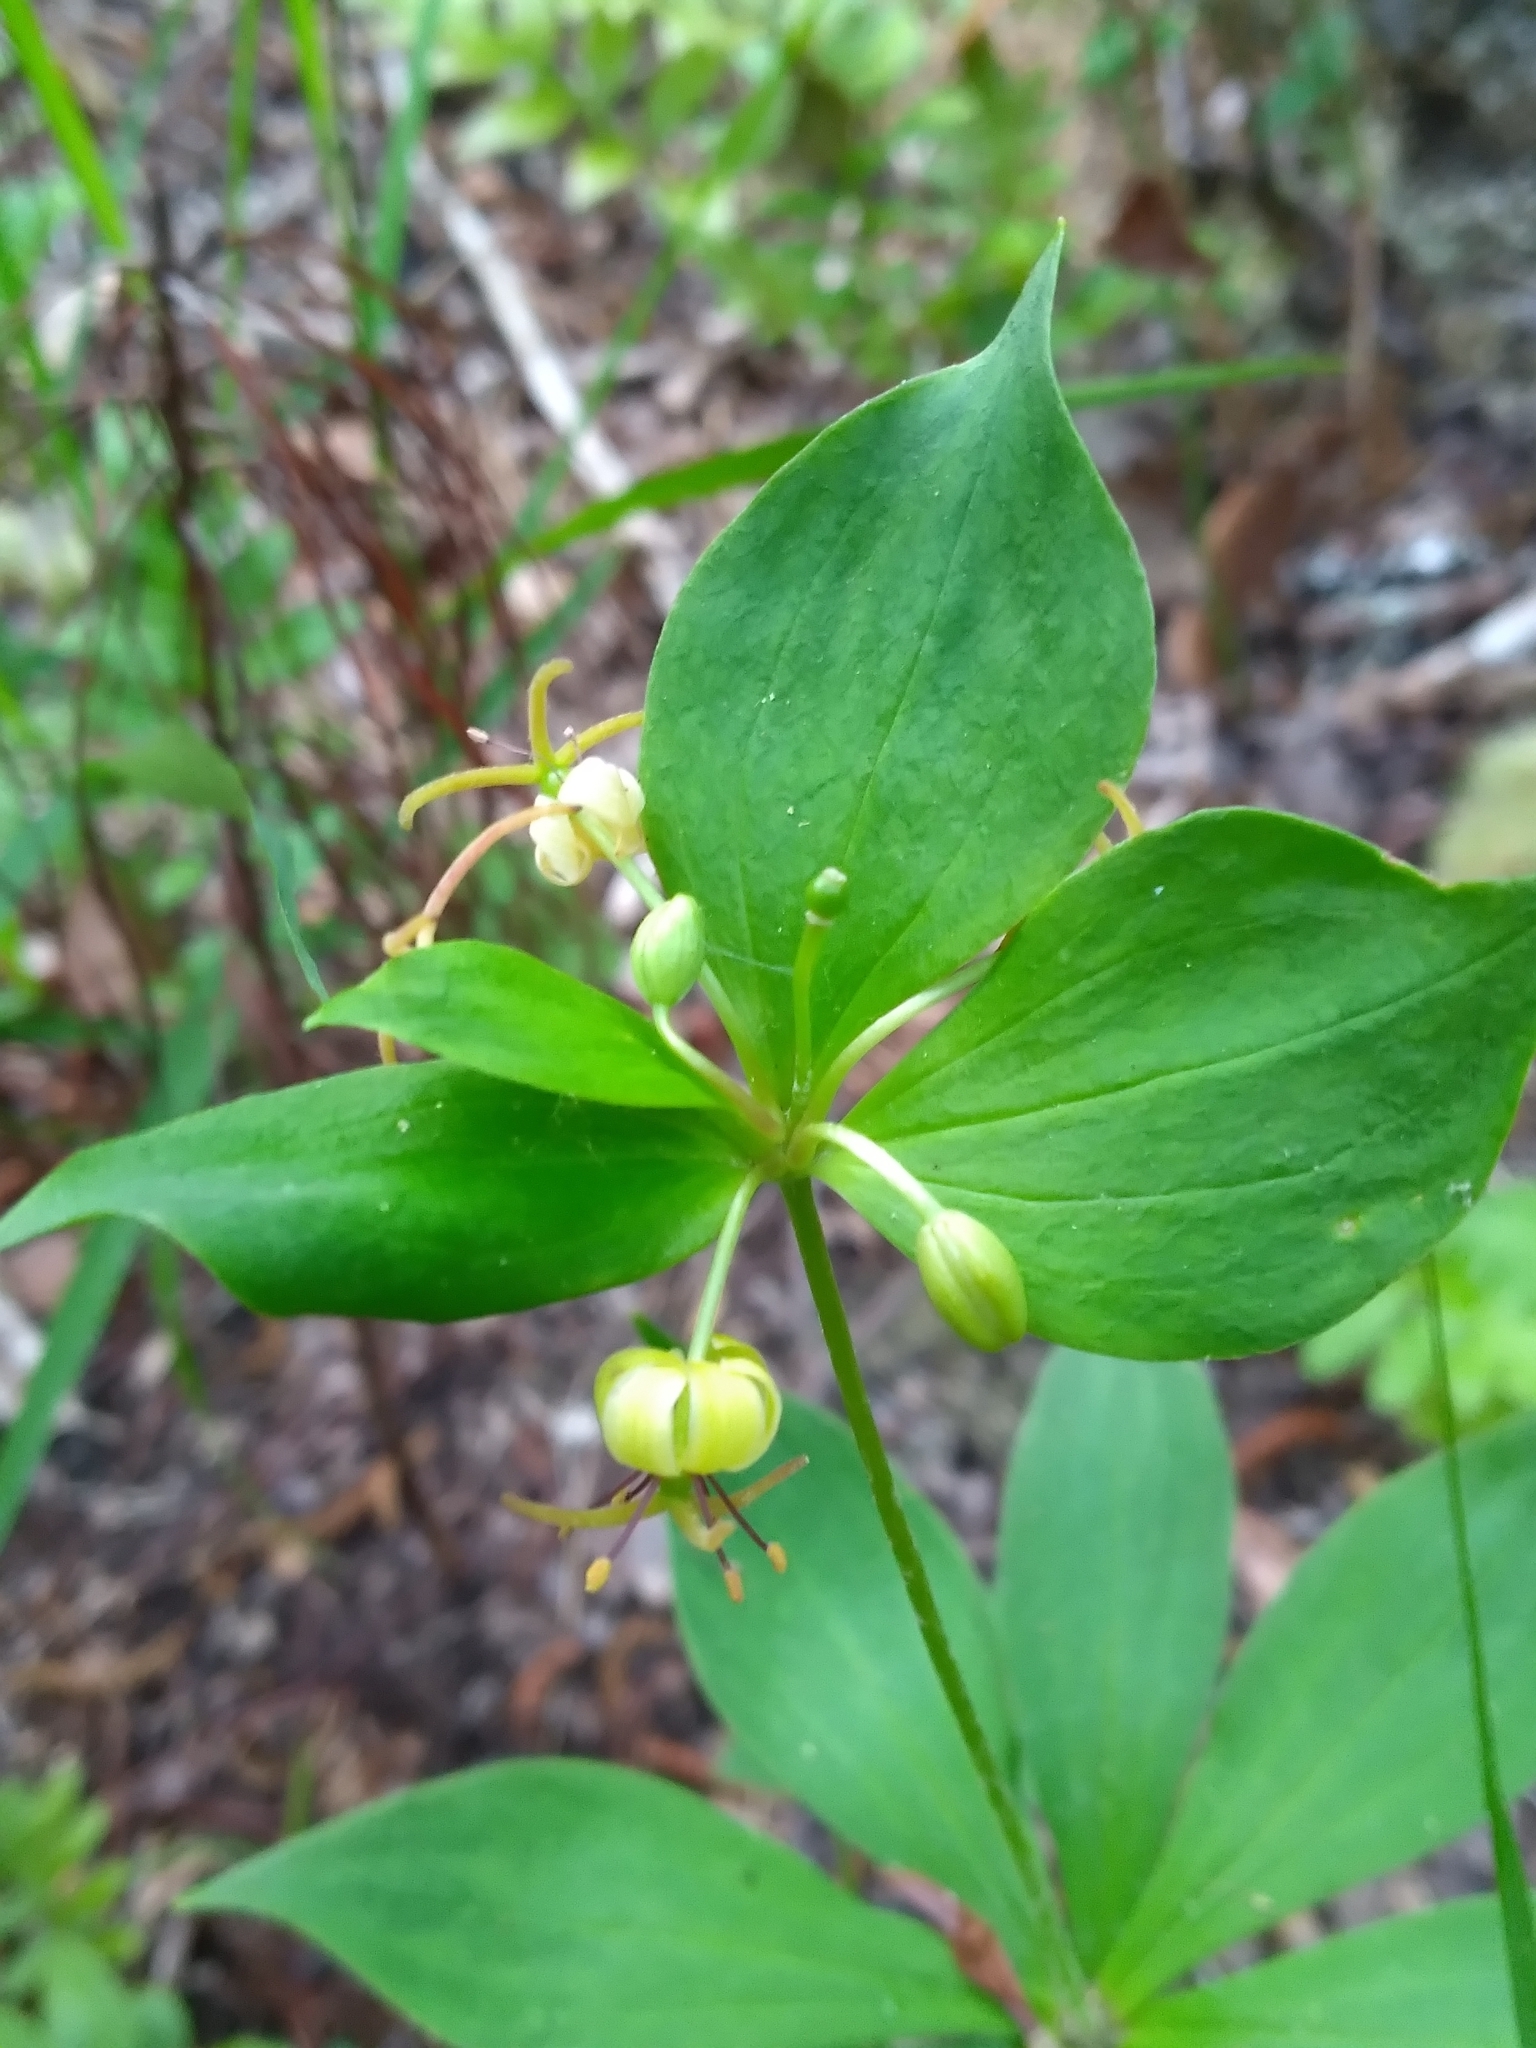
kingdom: Plantae
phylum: Tracheophyta
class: Liliopsida
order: Liliales
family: Liliaceae
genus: Medeola
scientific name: Medeola virginiana
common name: Indian cucumber-root
